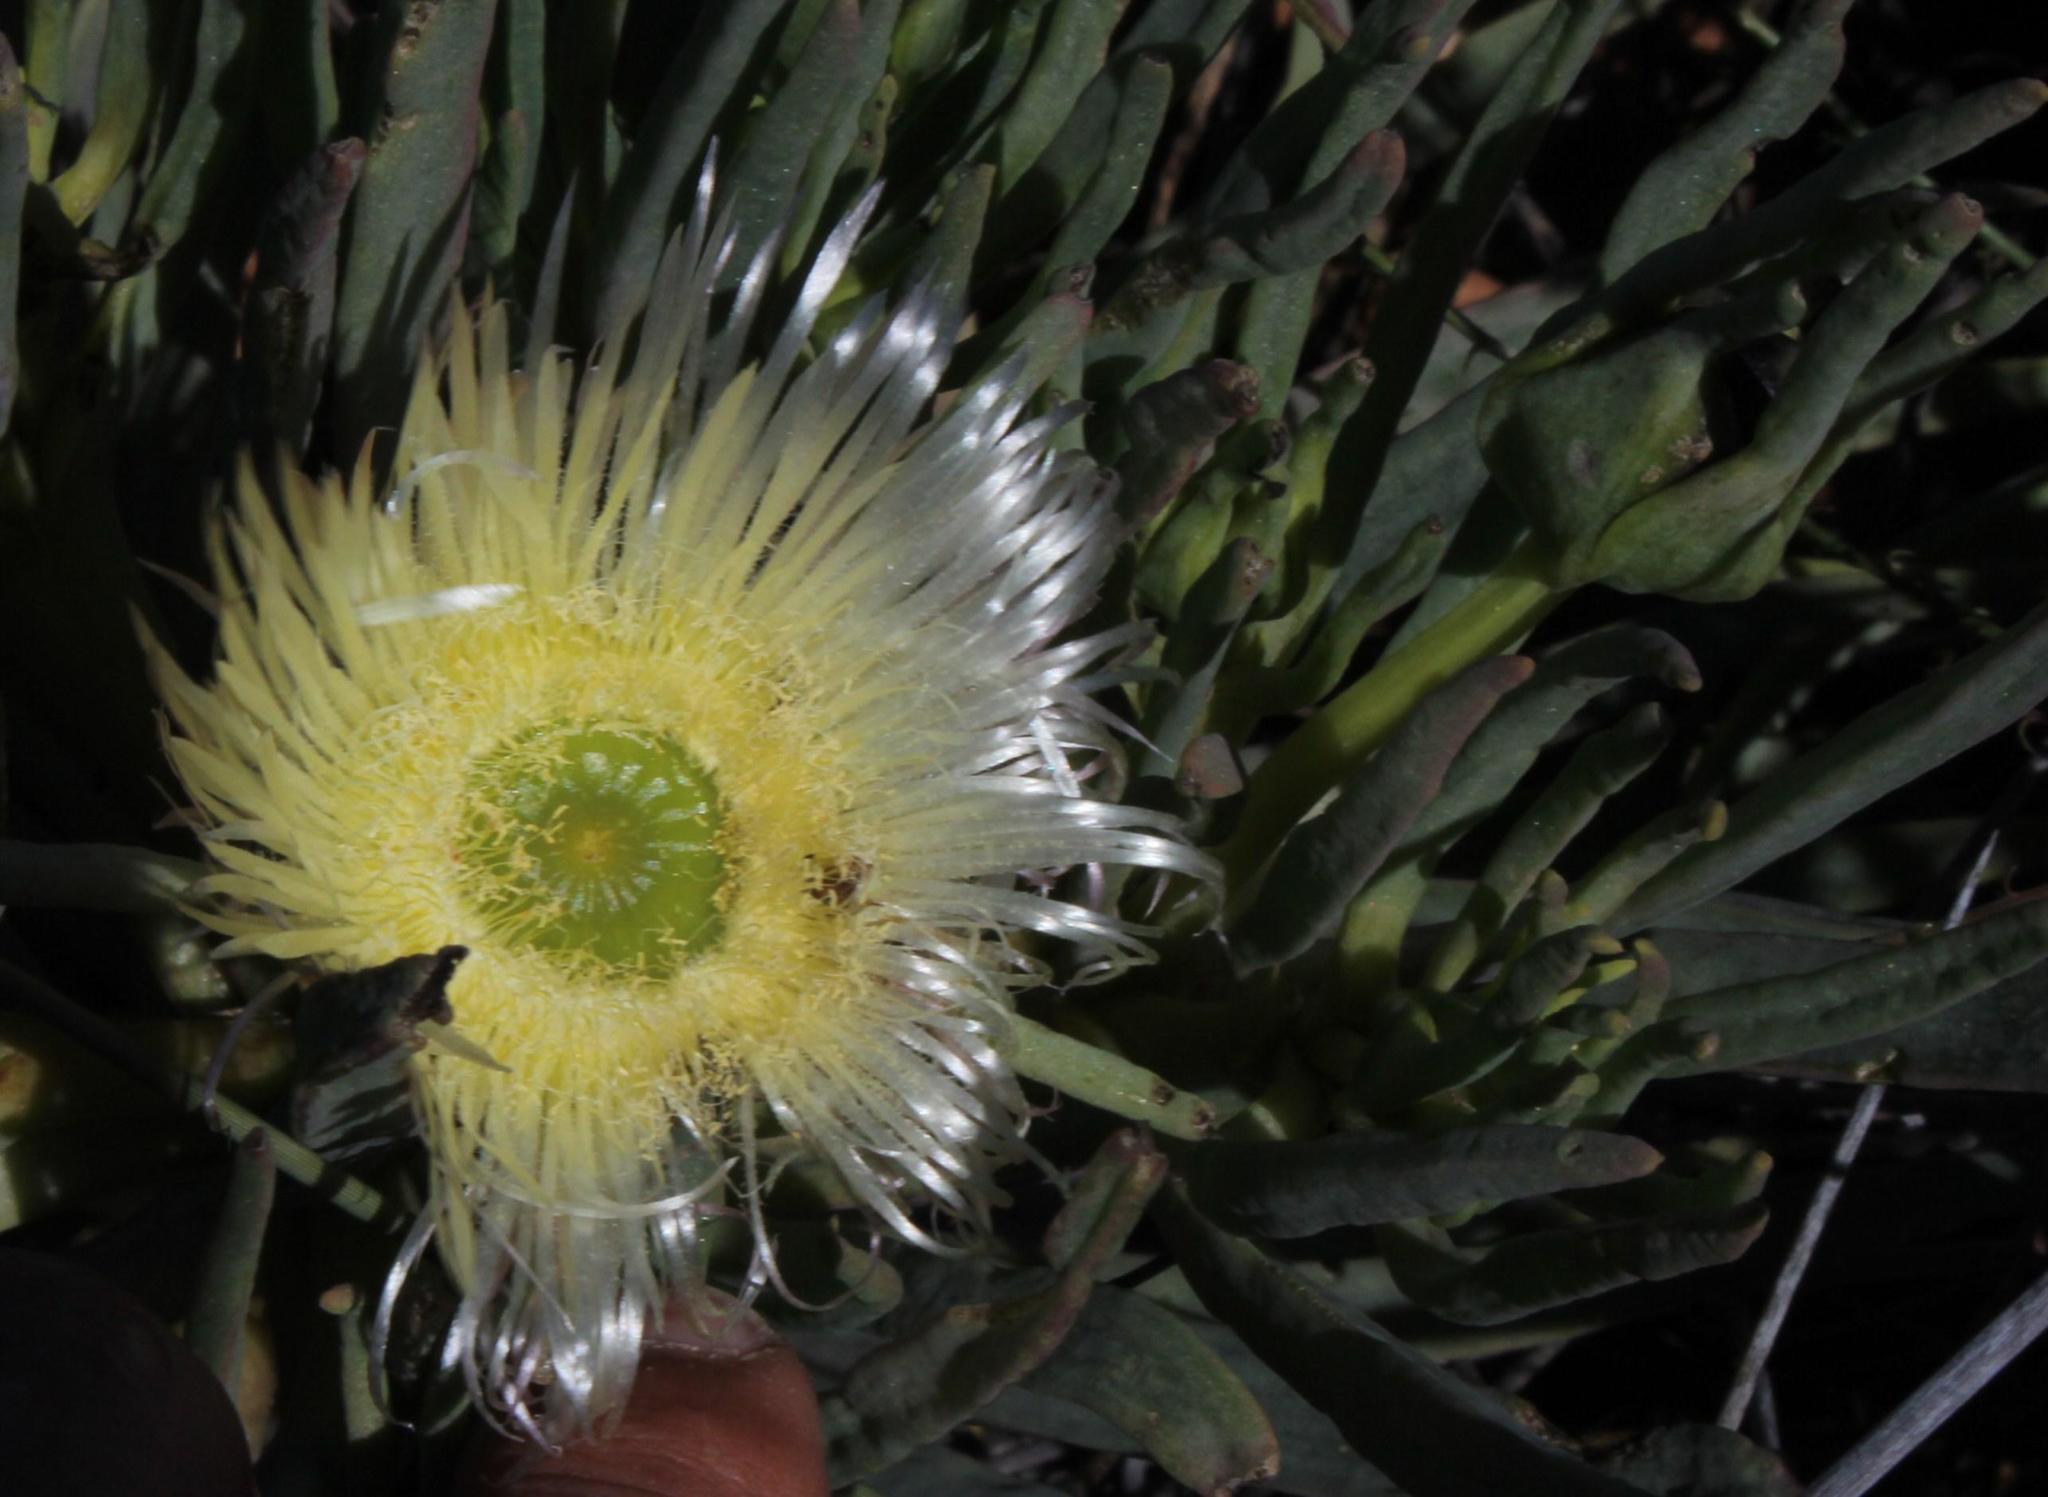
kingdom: Plantae
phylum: Tracheophyta
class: Magnoliopsida
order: Caryophyllales
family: Aizoaceae
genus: Conicosia
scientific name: Conicosia elongata
